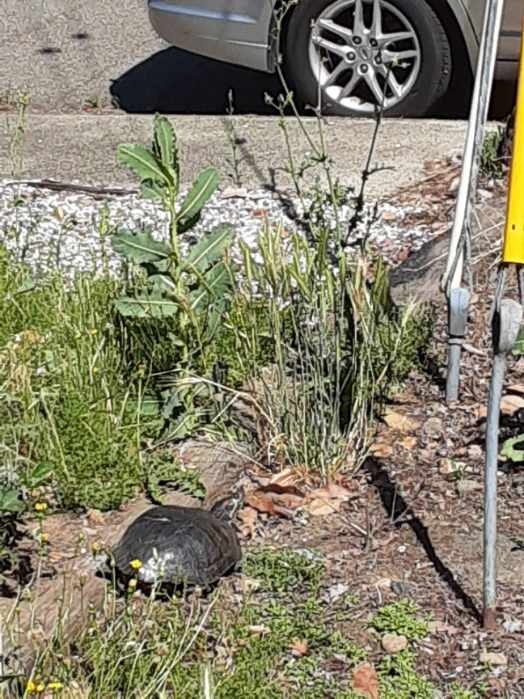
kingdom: Animalia
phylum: Chordata
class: Testudines
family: Emydidae
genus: Trachemys
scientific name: Trachemys scripta
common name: Slider
